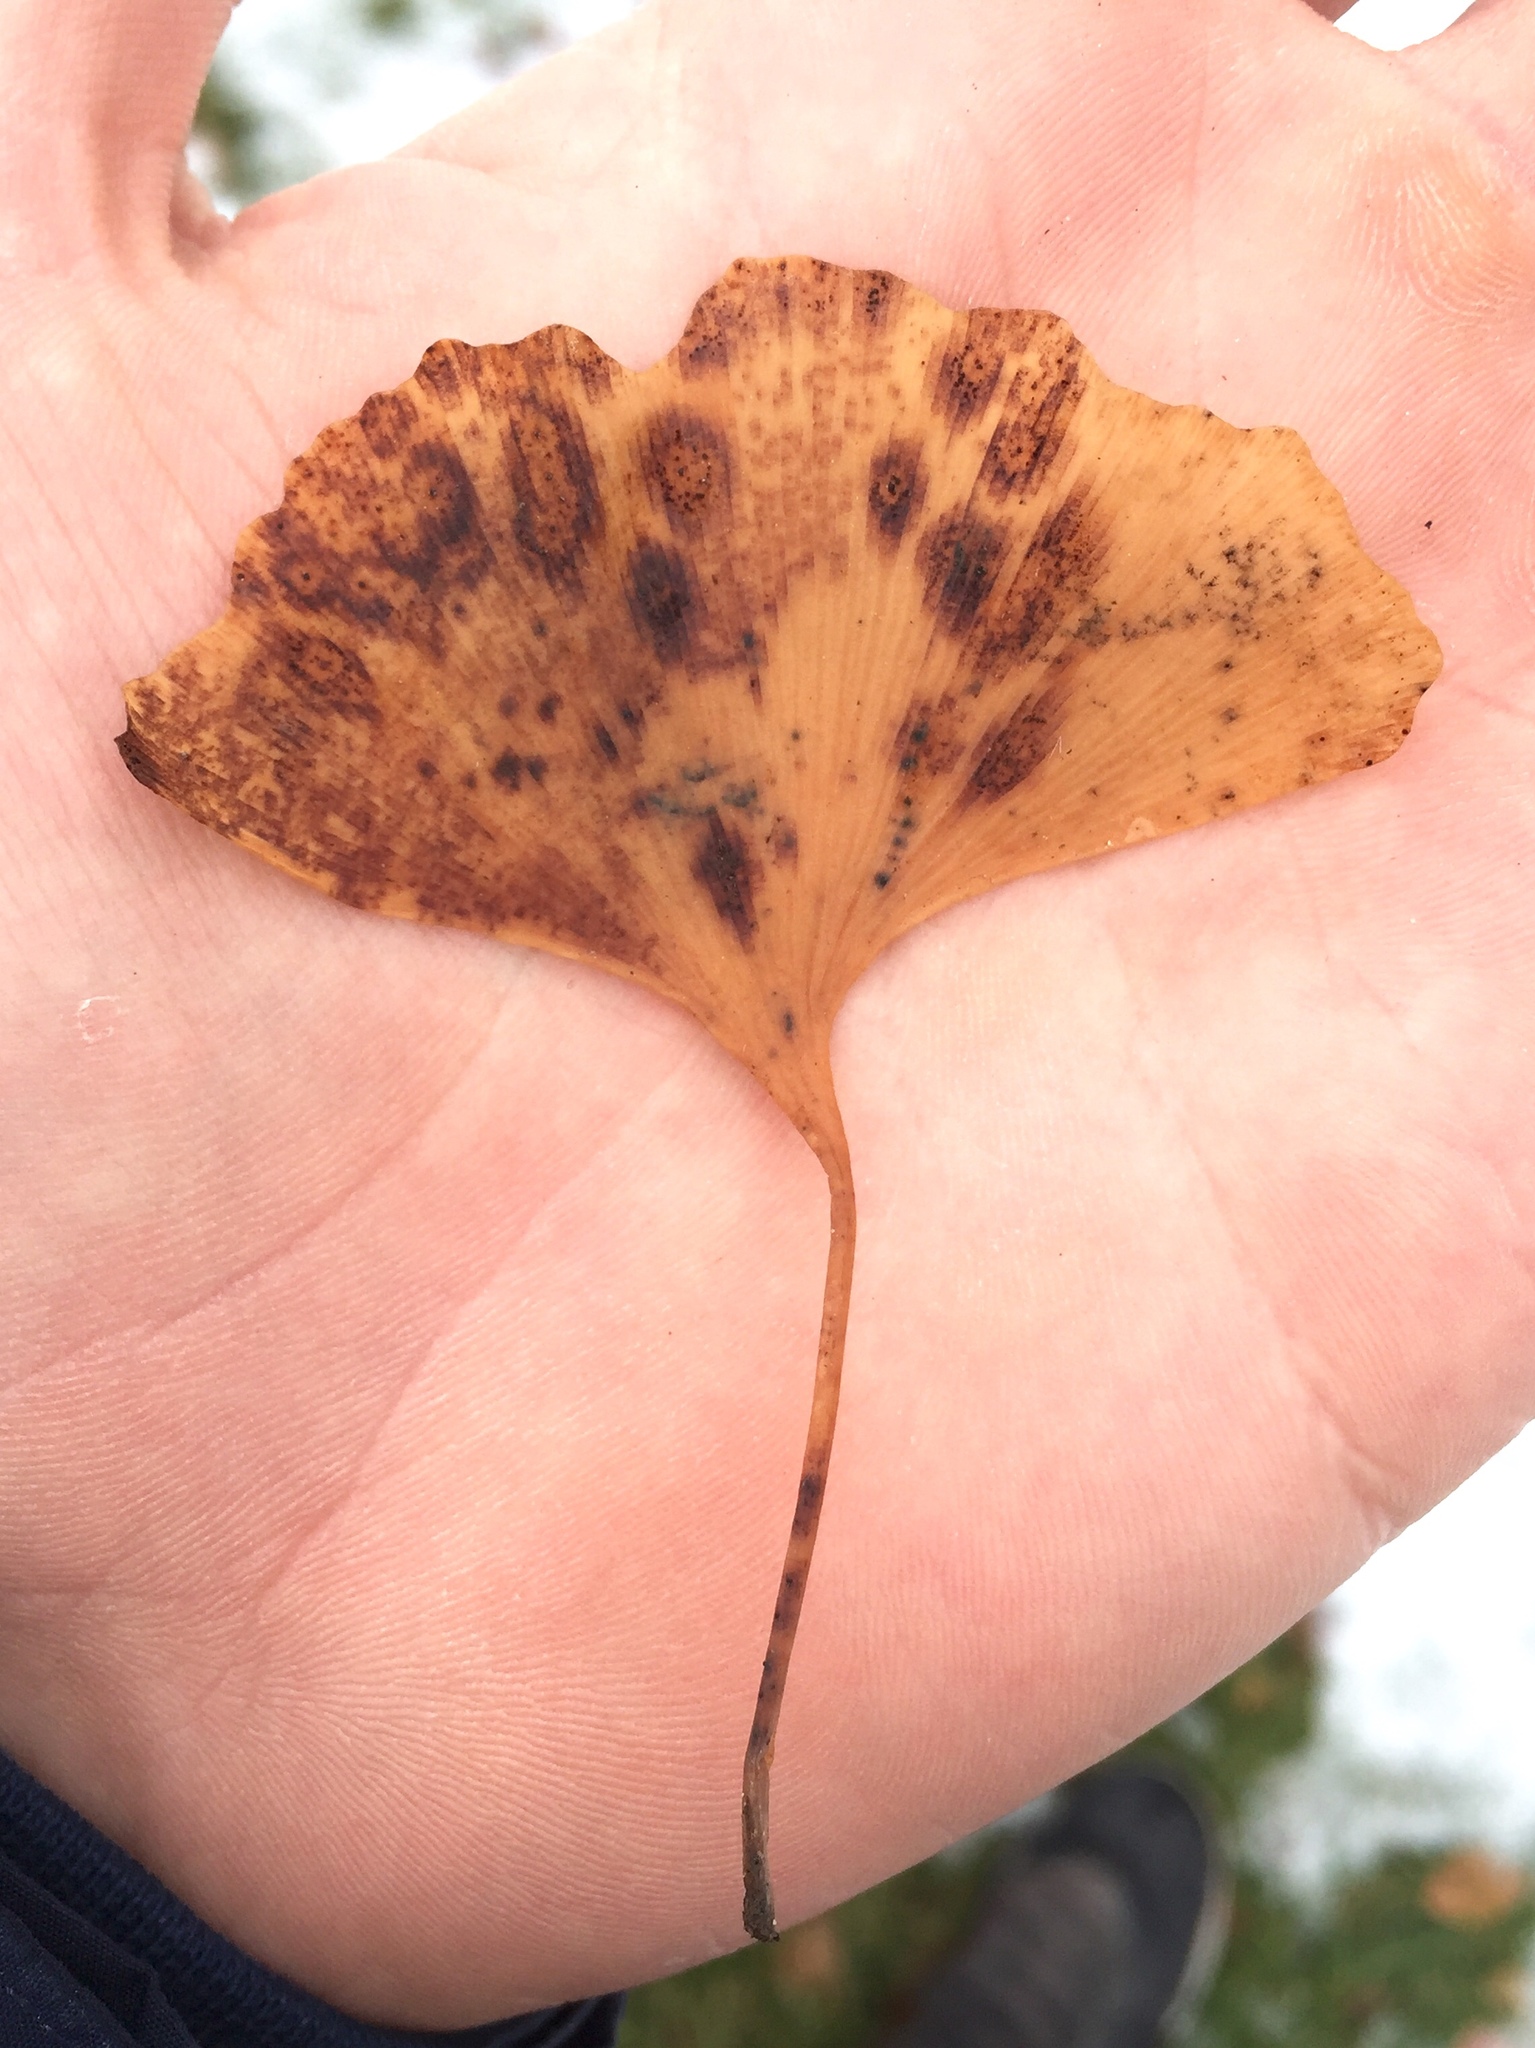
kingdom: Fungi
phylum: Basidiomycota
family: Bartheletiaceae
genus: Bartheletia
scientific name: Bartheletia paradoxa
